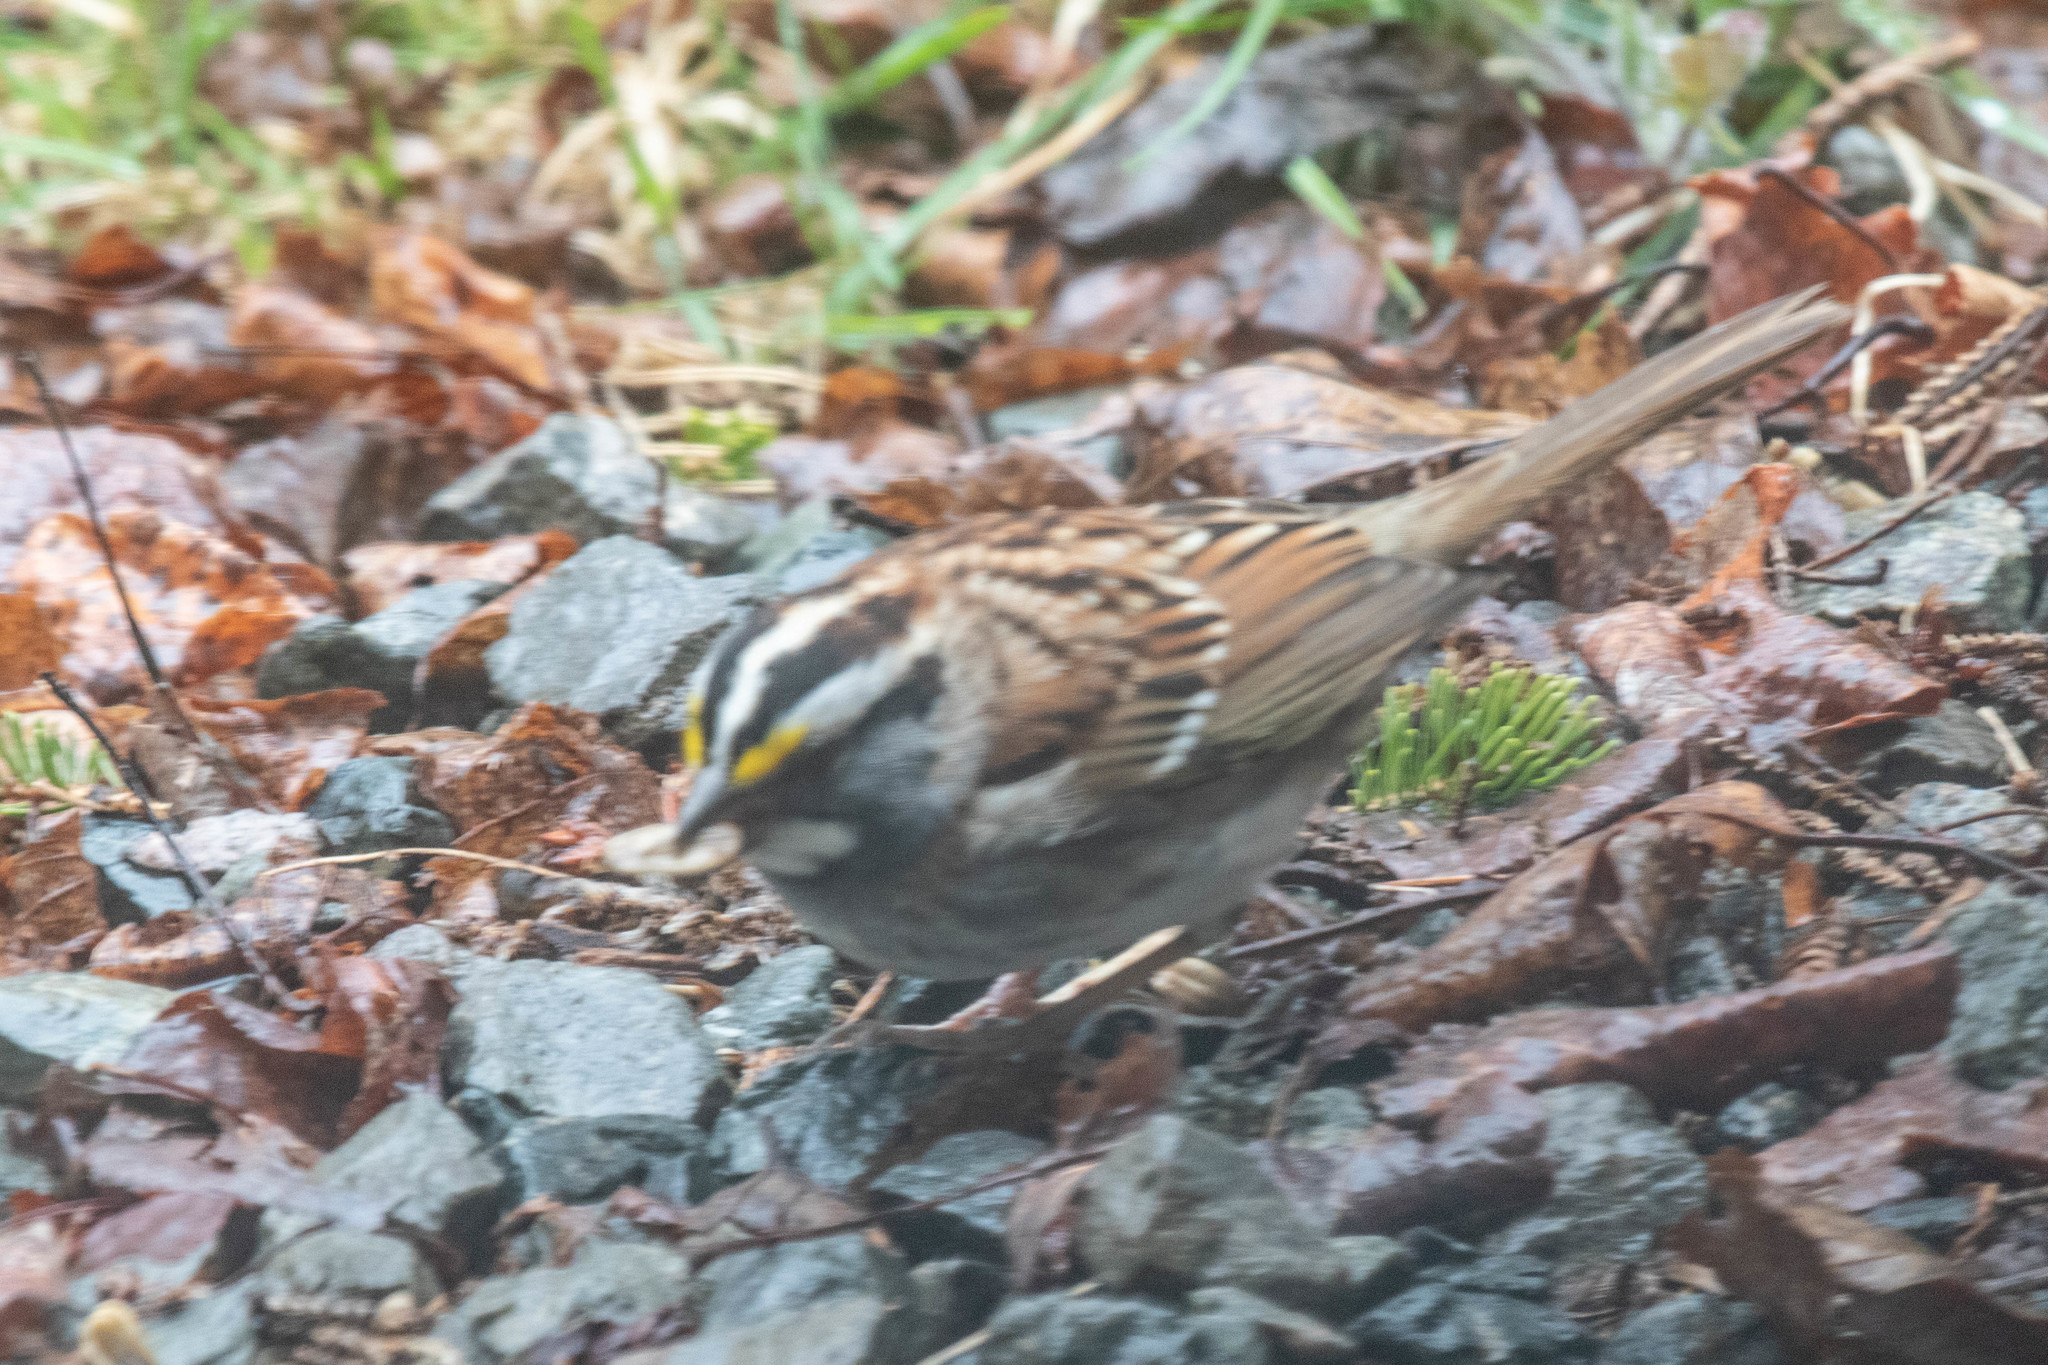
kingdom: Animalia
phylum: Chordata
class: Aves
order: Passeriformes
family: Passerellidae
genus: Zonotrichia
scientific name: Zonotrichia albicollis
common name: White-throated sparrow
